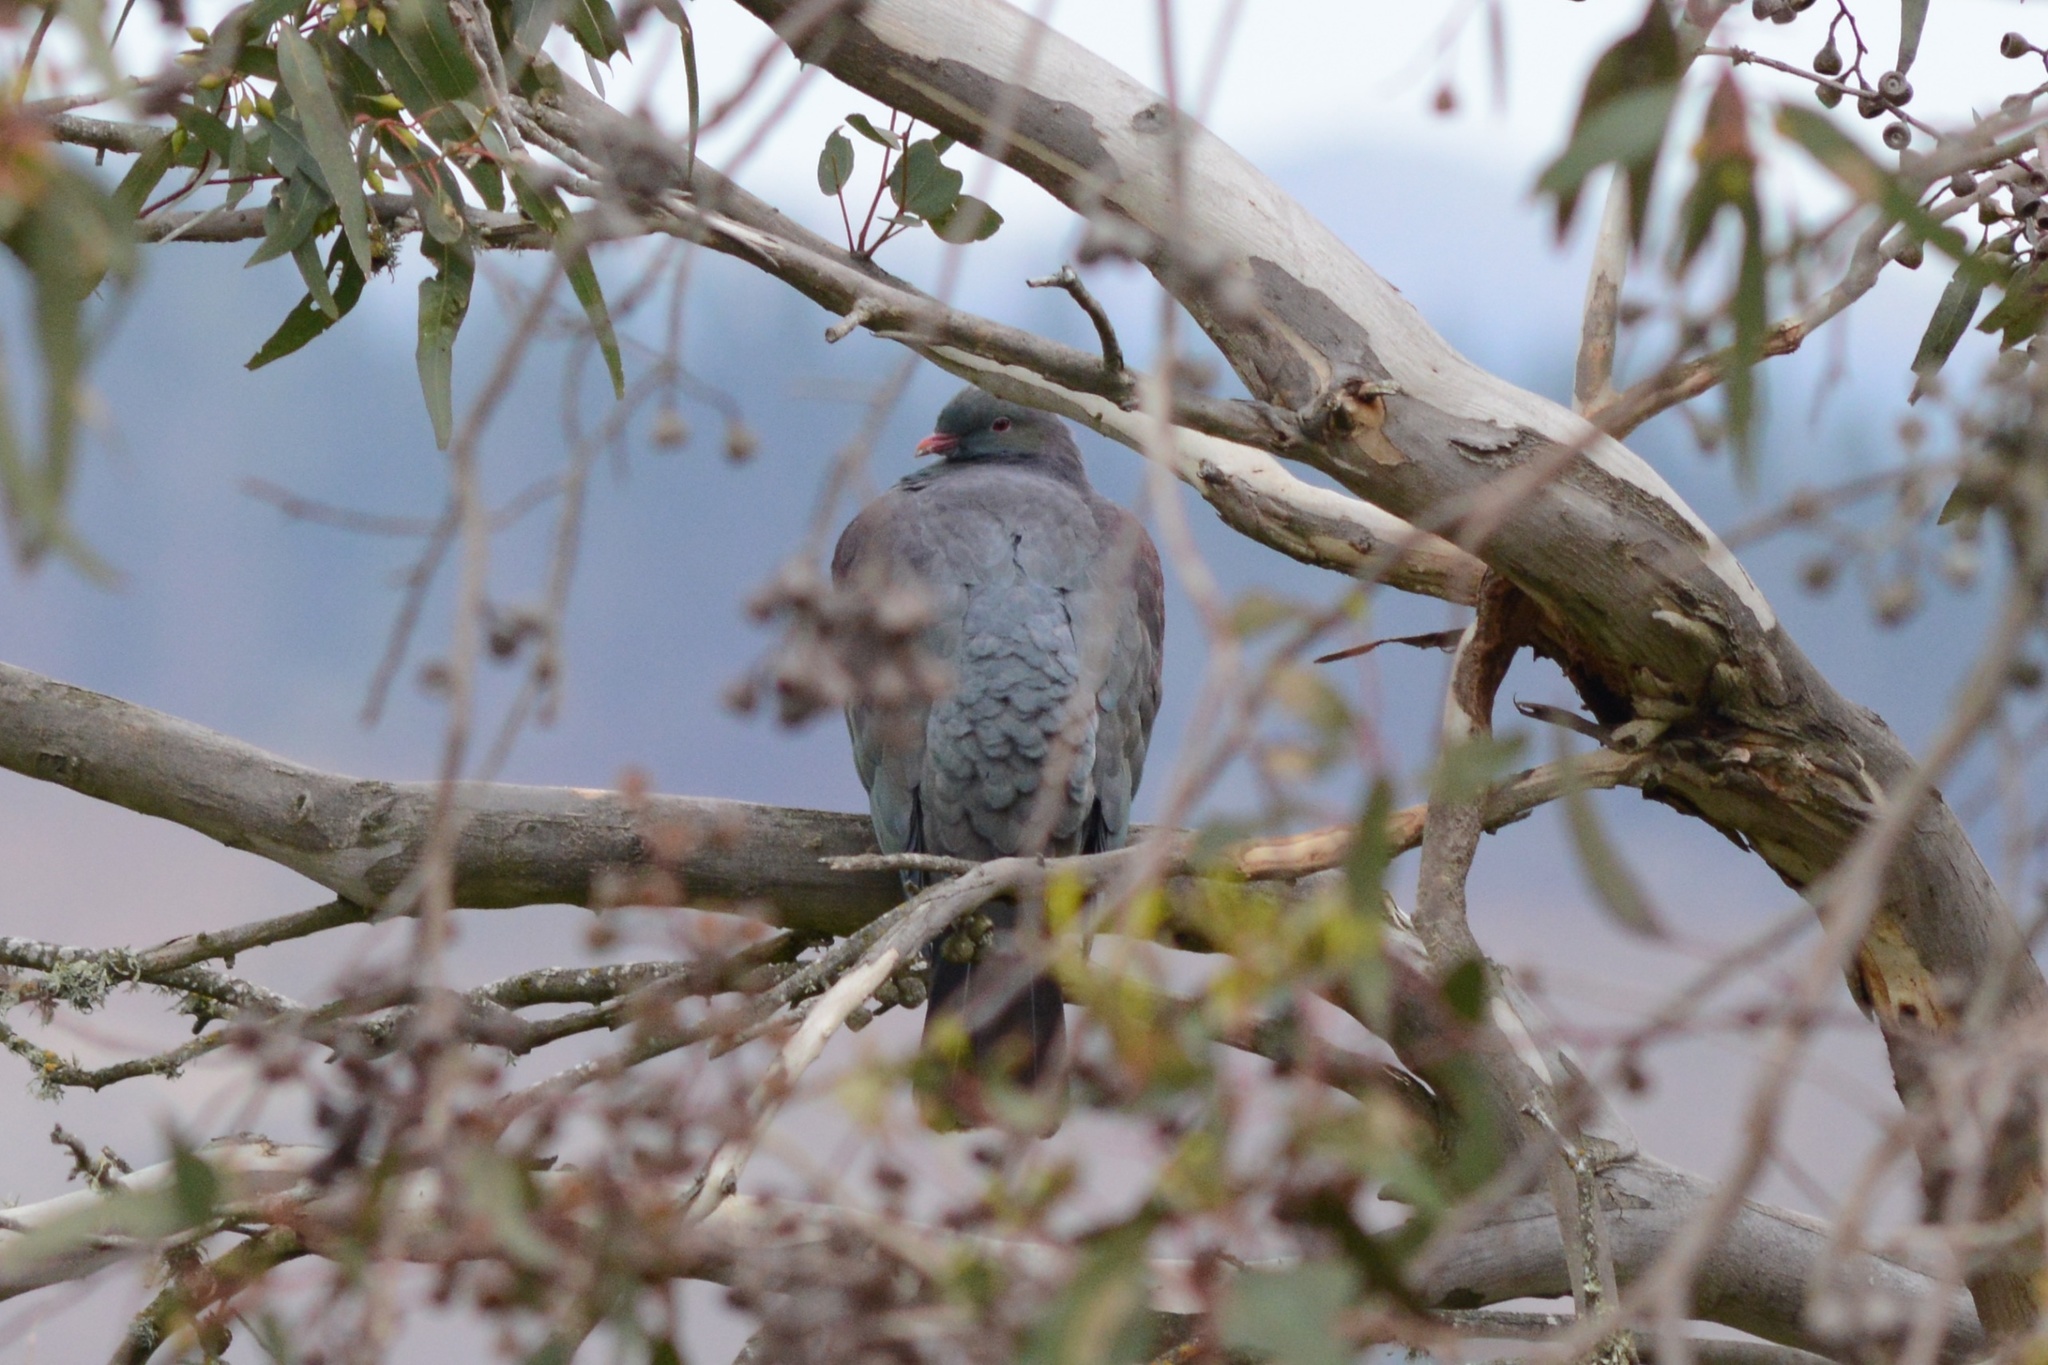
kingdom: Animalia
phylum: Chordata
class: Aves
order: Columbiformes
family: Columbidae
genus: Hemiphaga
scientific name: Hemiphaga novaeseelandiae
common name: New zealand pigeon
